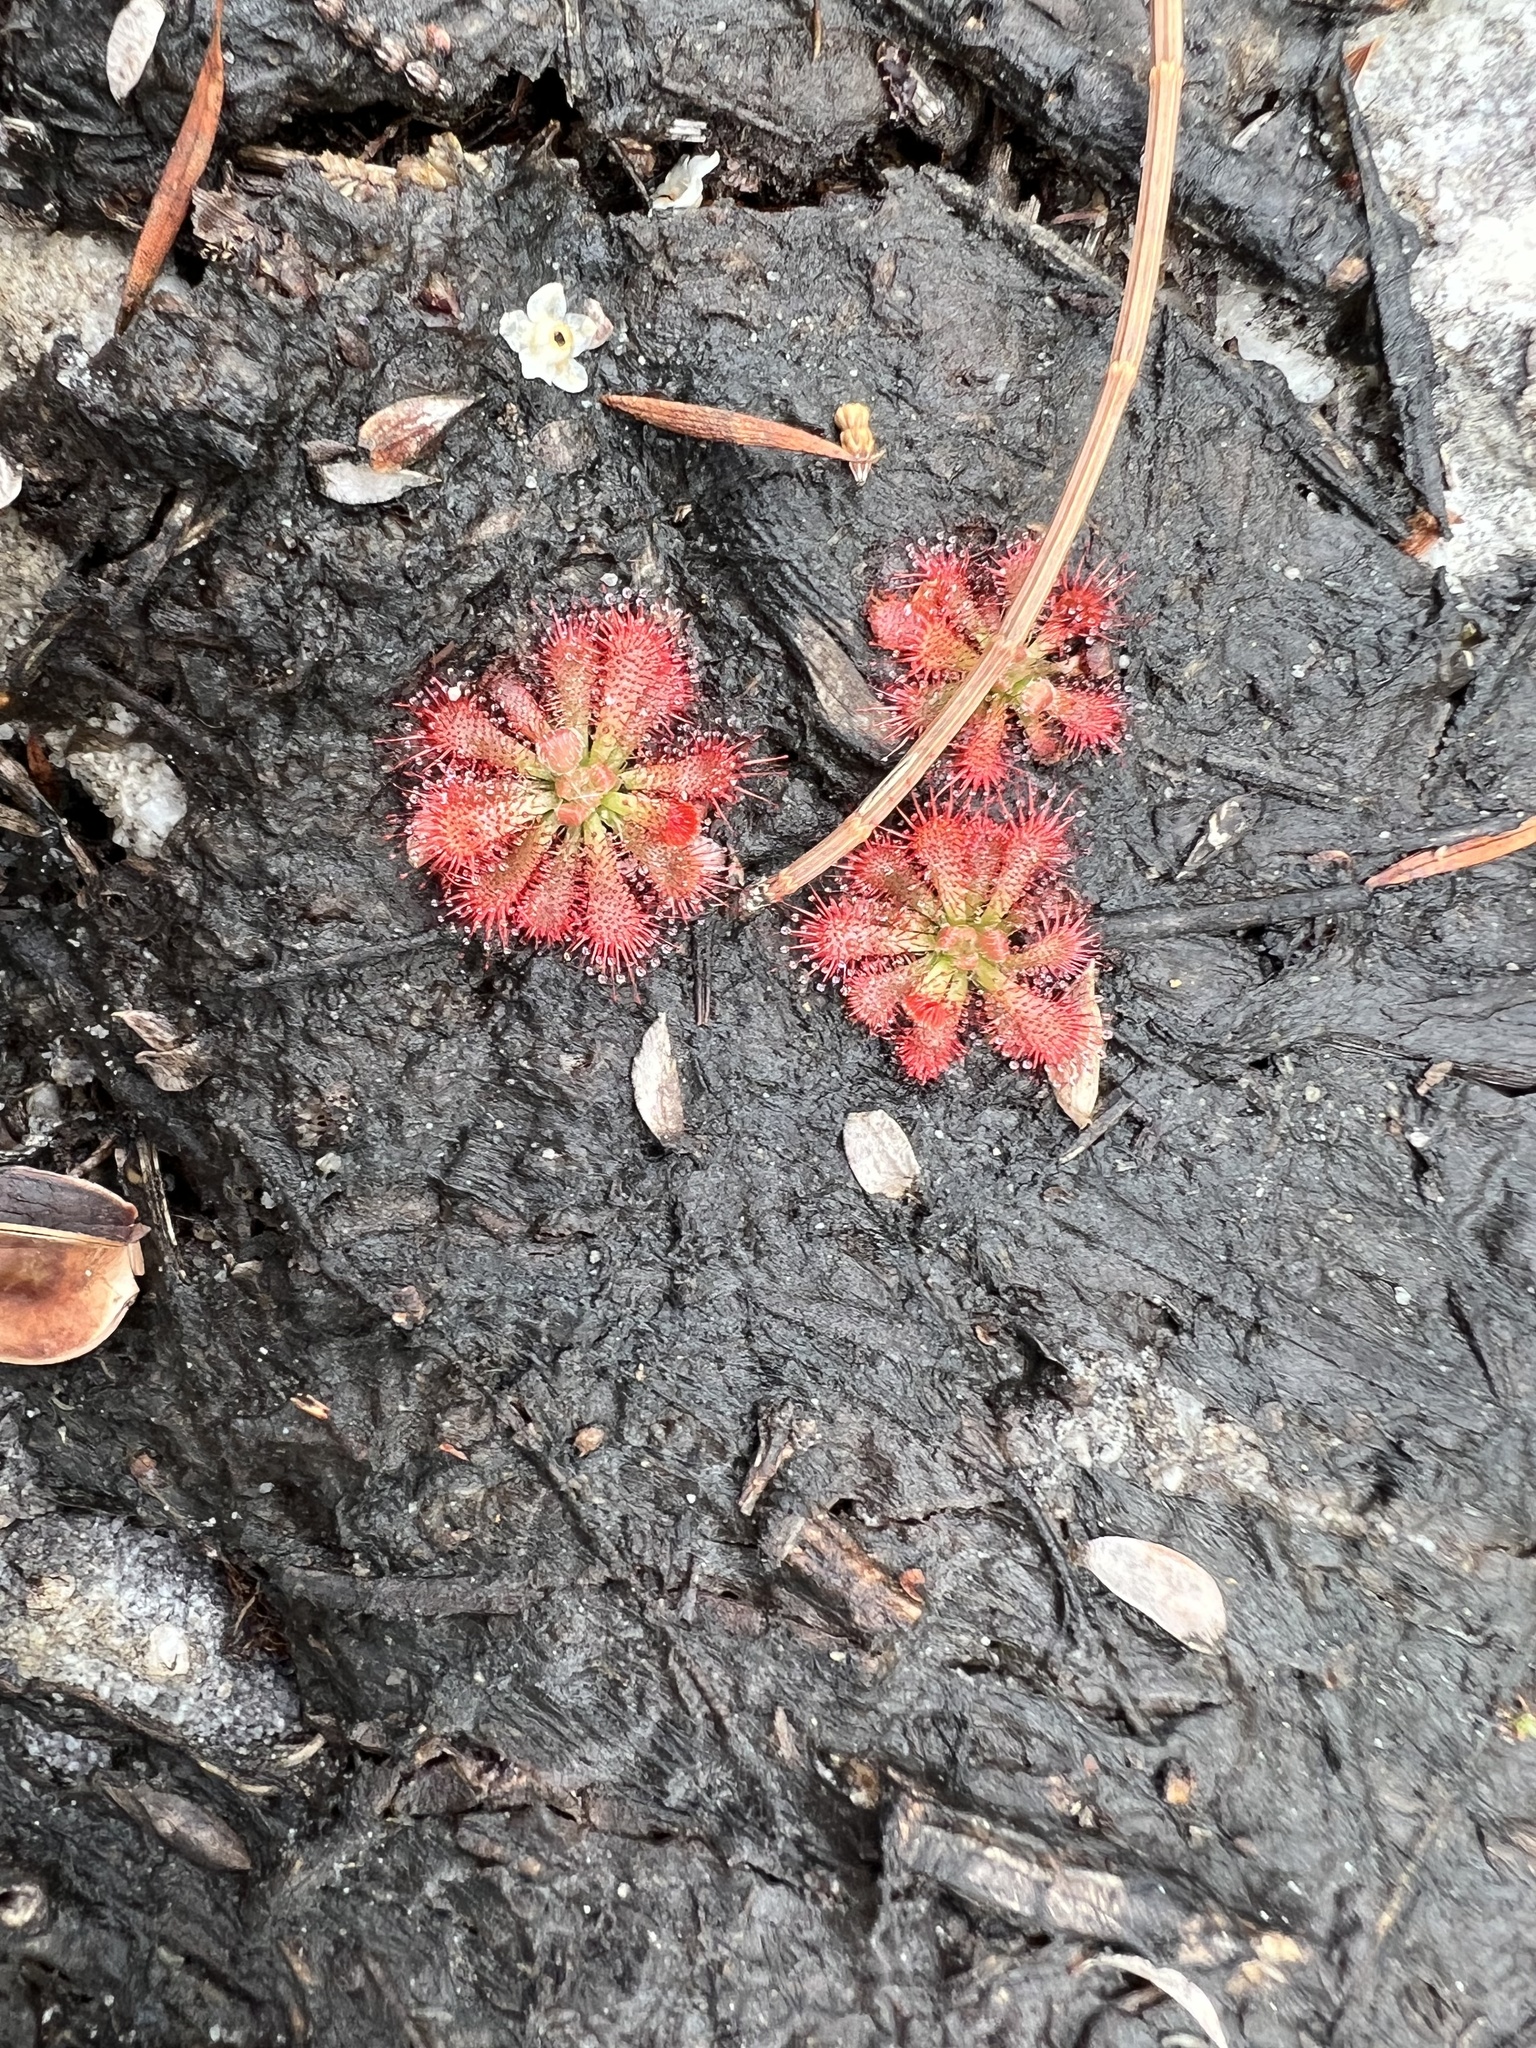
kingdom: Plantae
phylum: Tracheophyta
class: Magnoliopsida
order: Caryophyllales
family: Droseraceae
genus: Drosera
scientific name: Drosera spatulata
